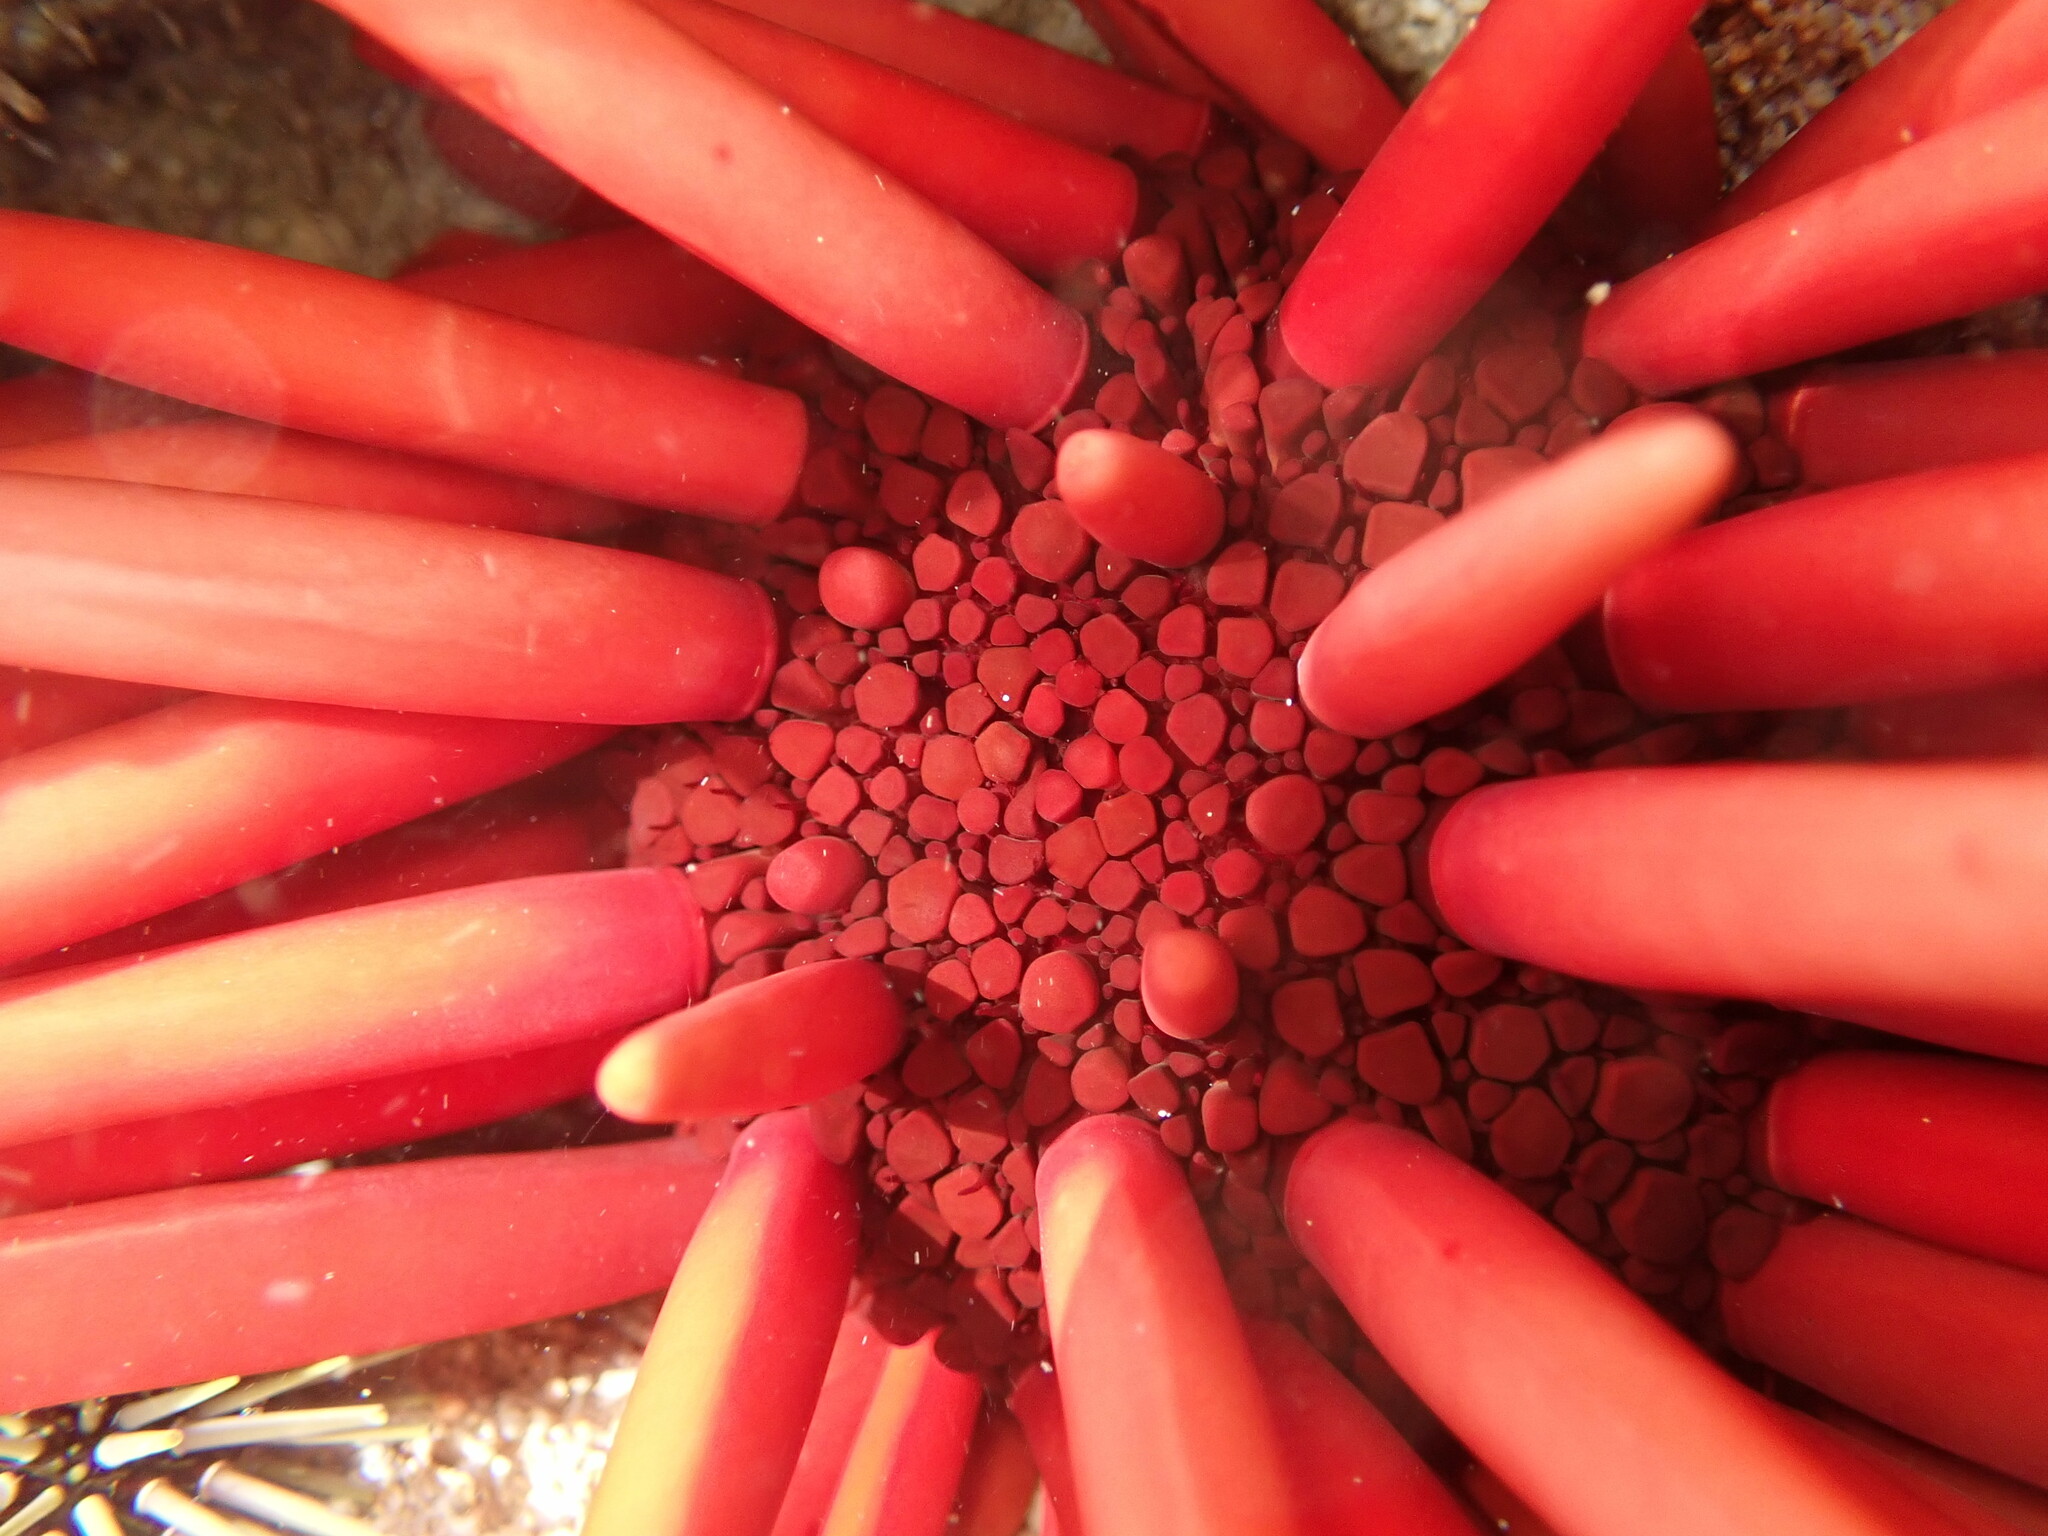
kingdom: Animalia
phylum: Echinodermata
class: Echinoidea
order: Camarodonta
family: Echinometridae
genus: Heterocentrotus
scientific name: Heterocentrotus mamillatus
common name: Slate pencil urchin
